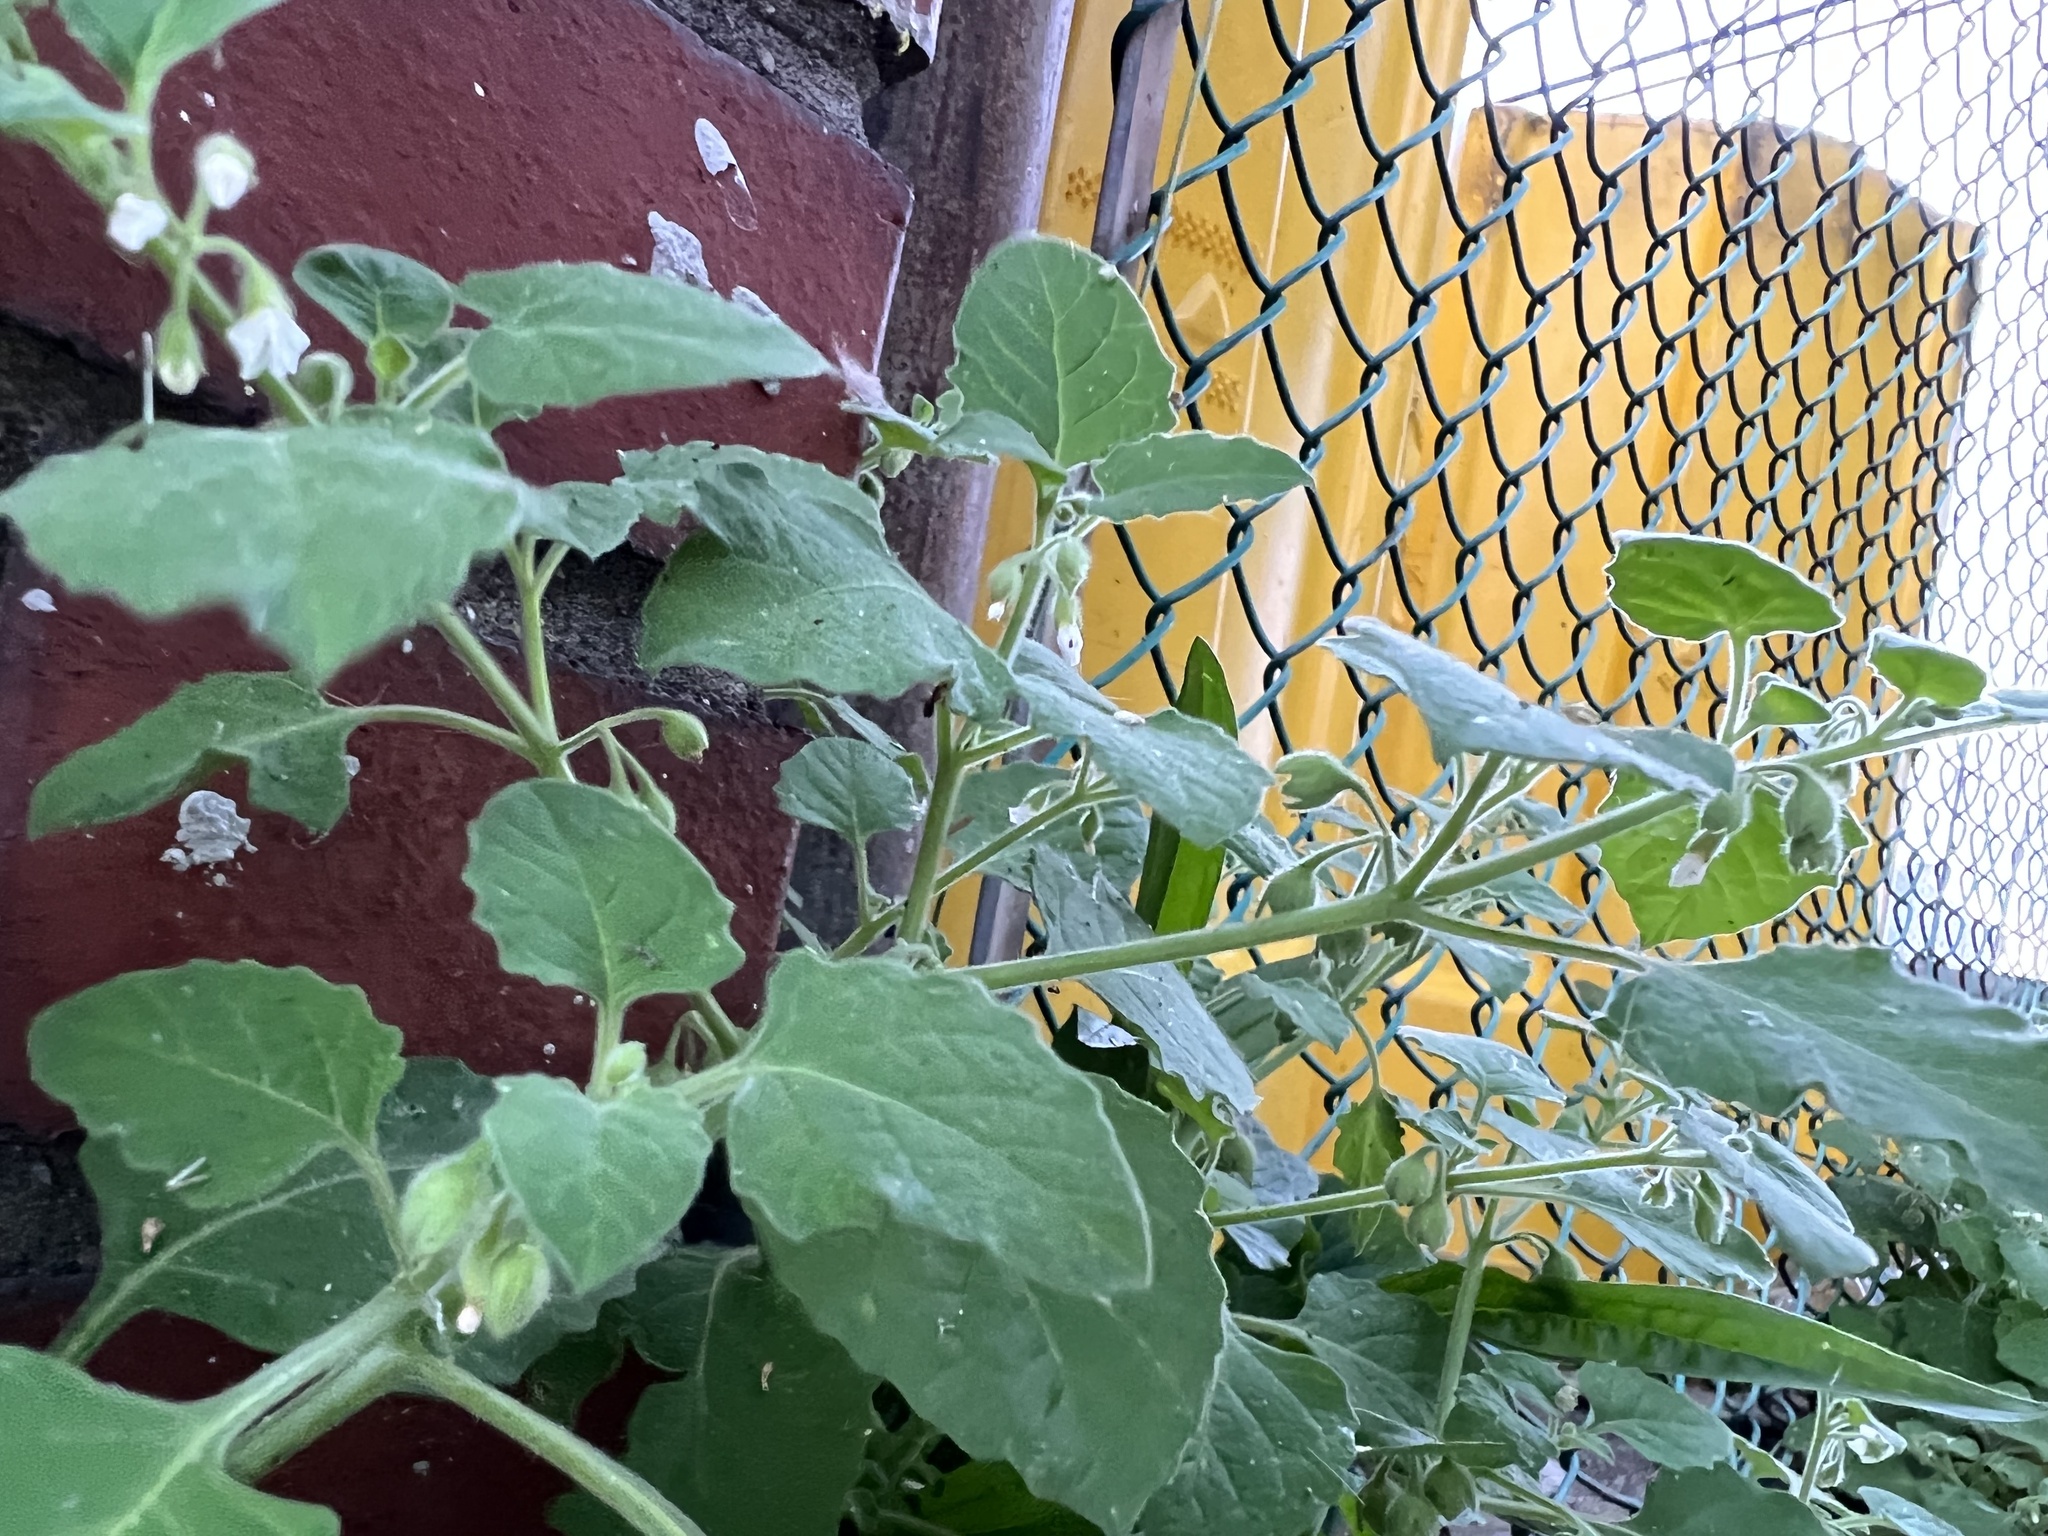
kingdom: Plantae
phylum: Tracheophyta
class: Magnoliopsida
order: Solanales
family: Solanaceae
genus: Solanum
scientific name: Solanum sarrachoides
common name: Leafy-fruited nightshade
